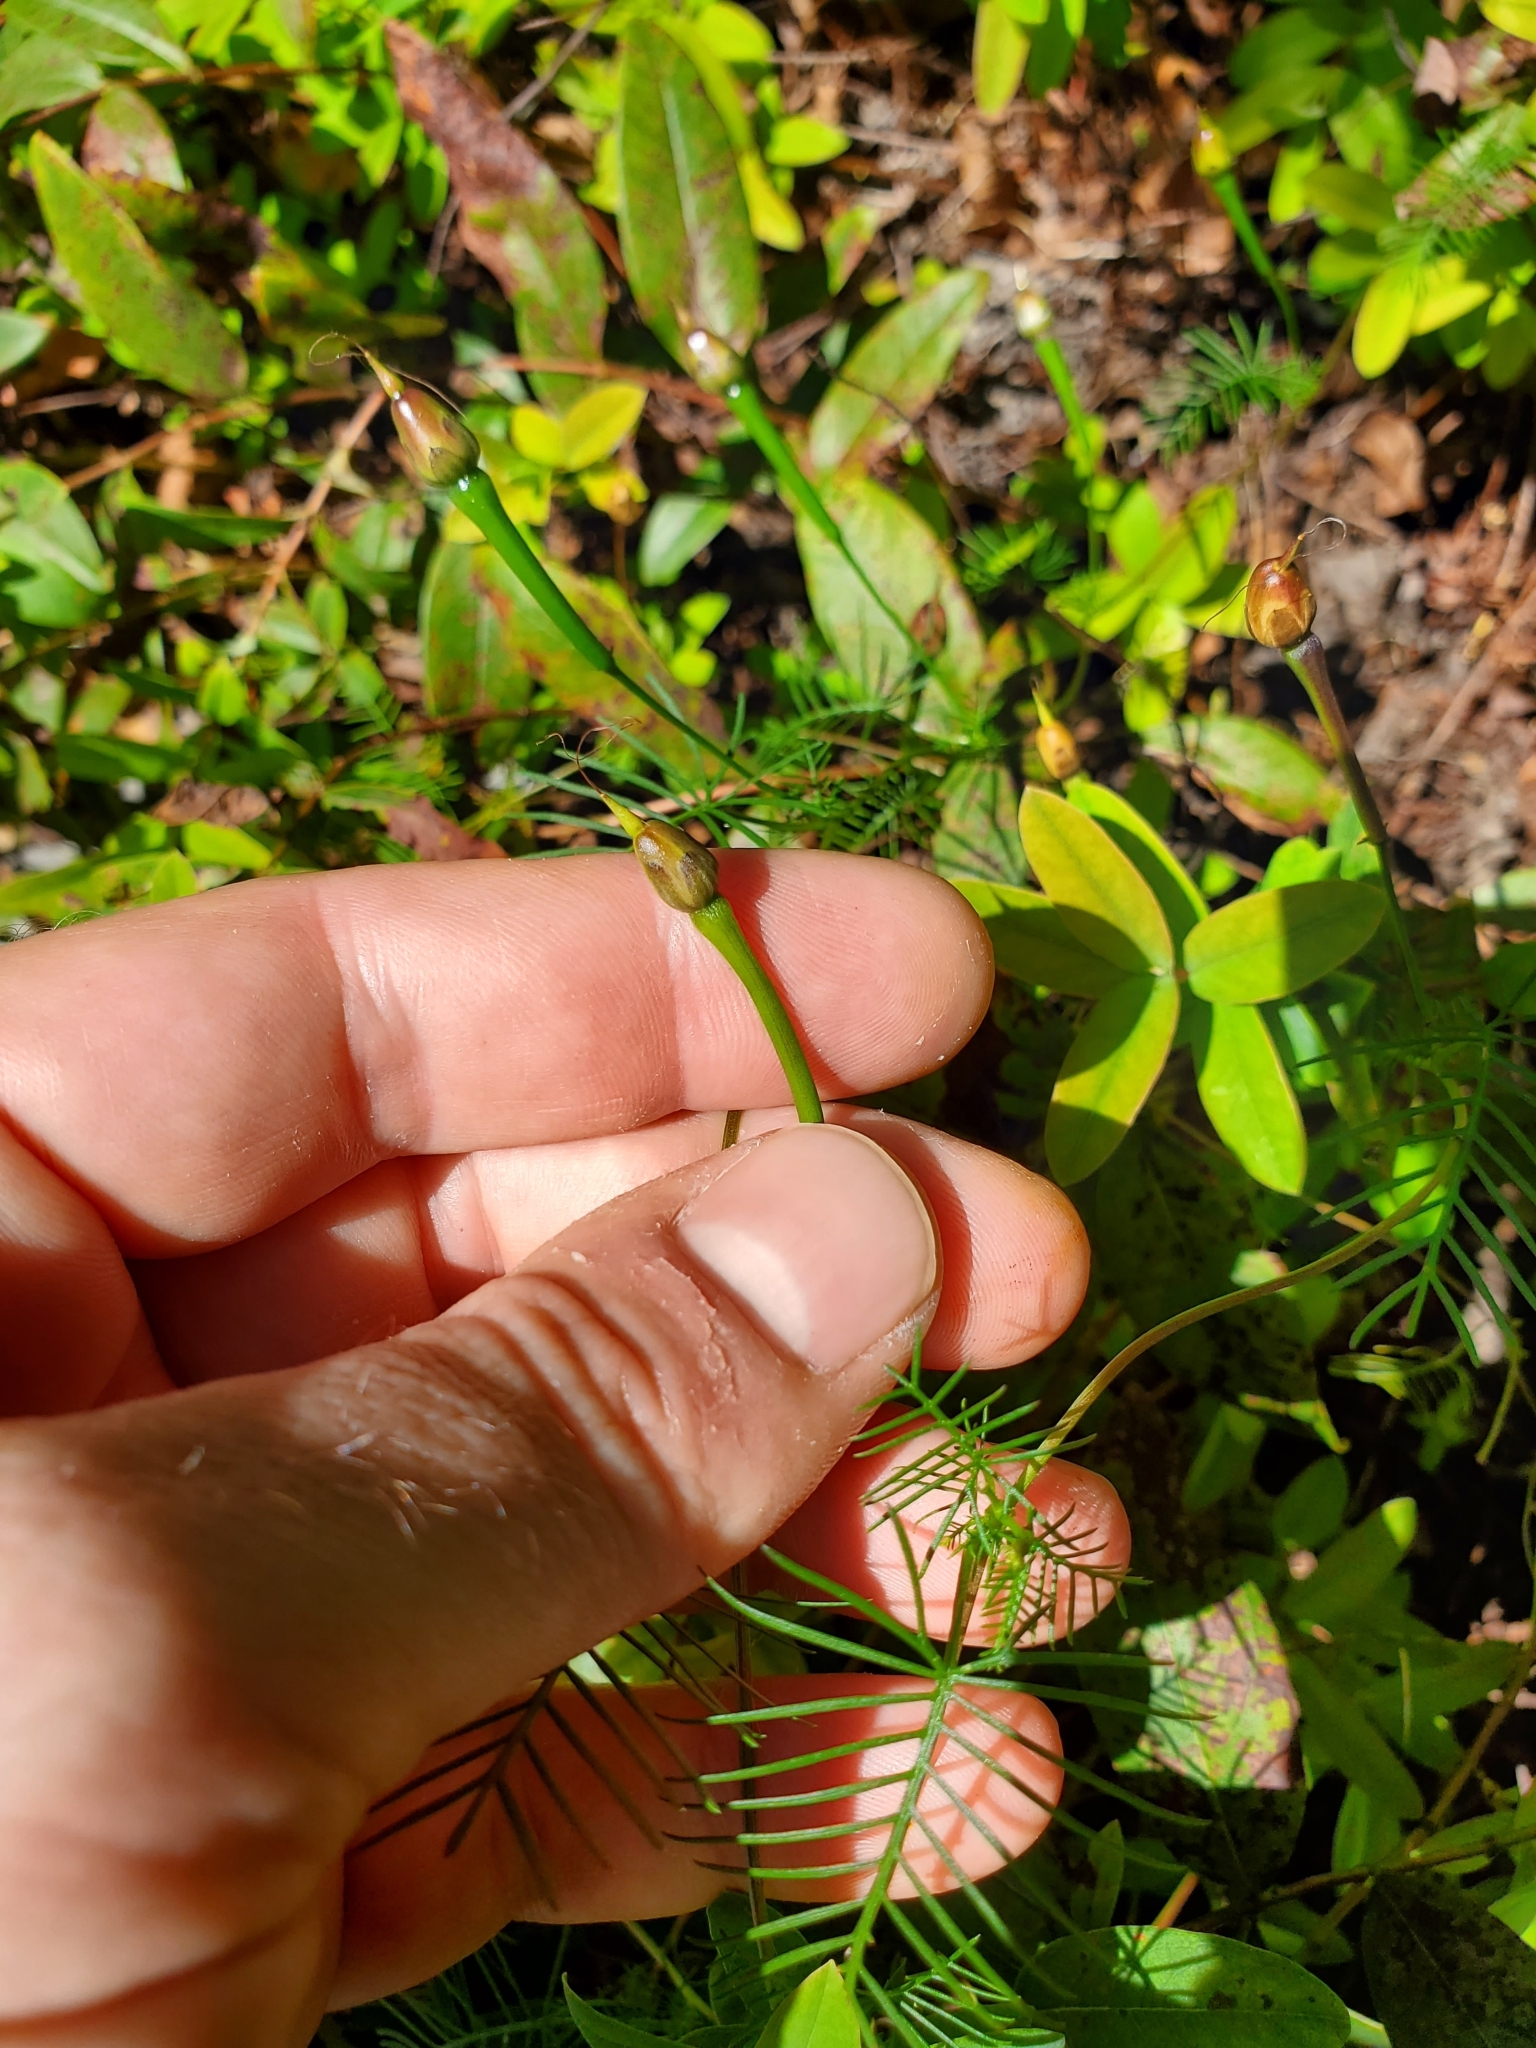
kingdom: Plantae
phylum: Tracheophyta
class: Magnoliopsida
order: Solanales
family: Convolvulaceae
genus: Ipomoea
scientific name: Ipomoea quamoclit
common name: Cypress vine
